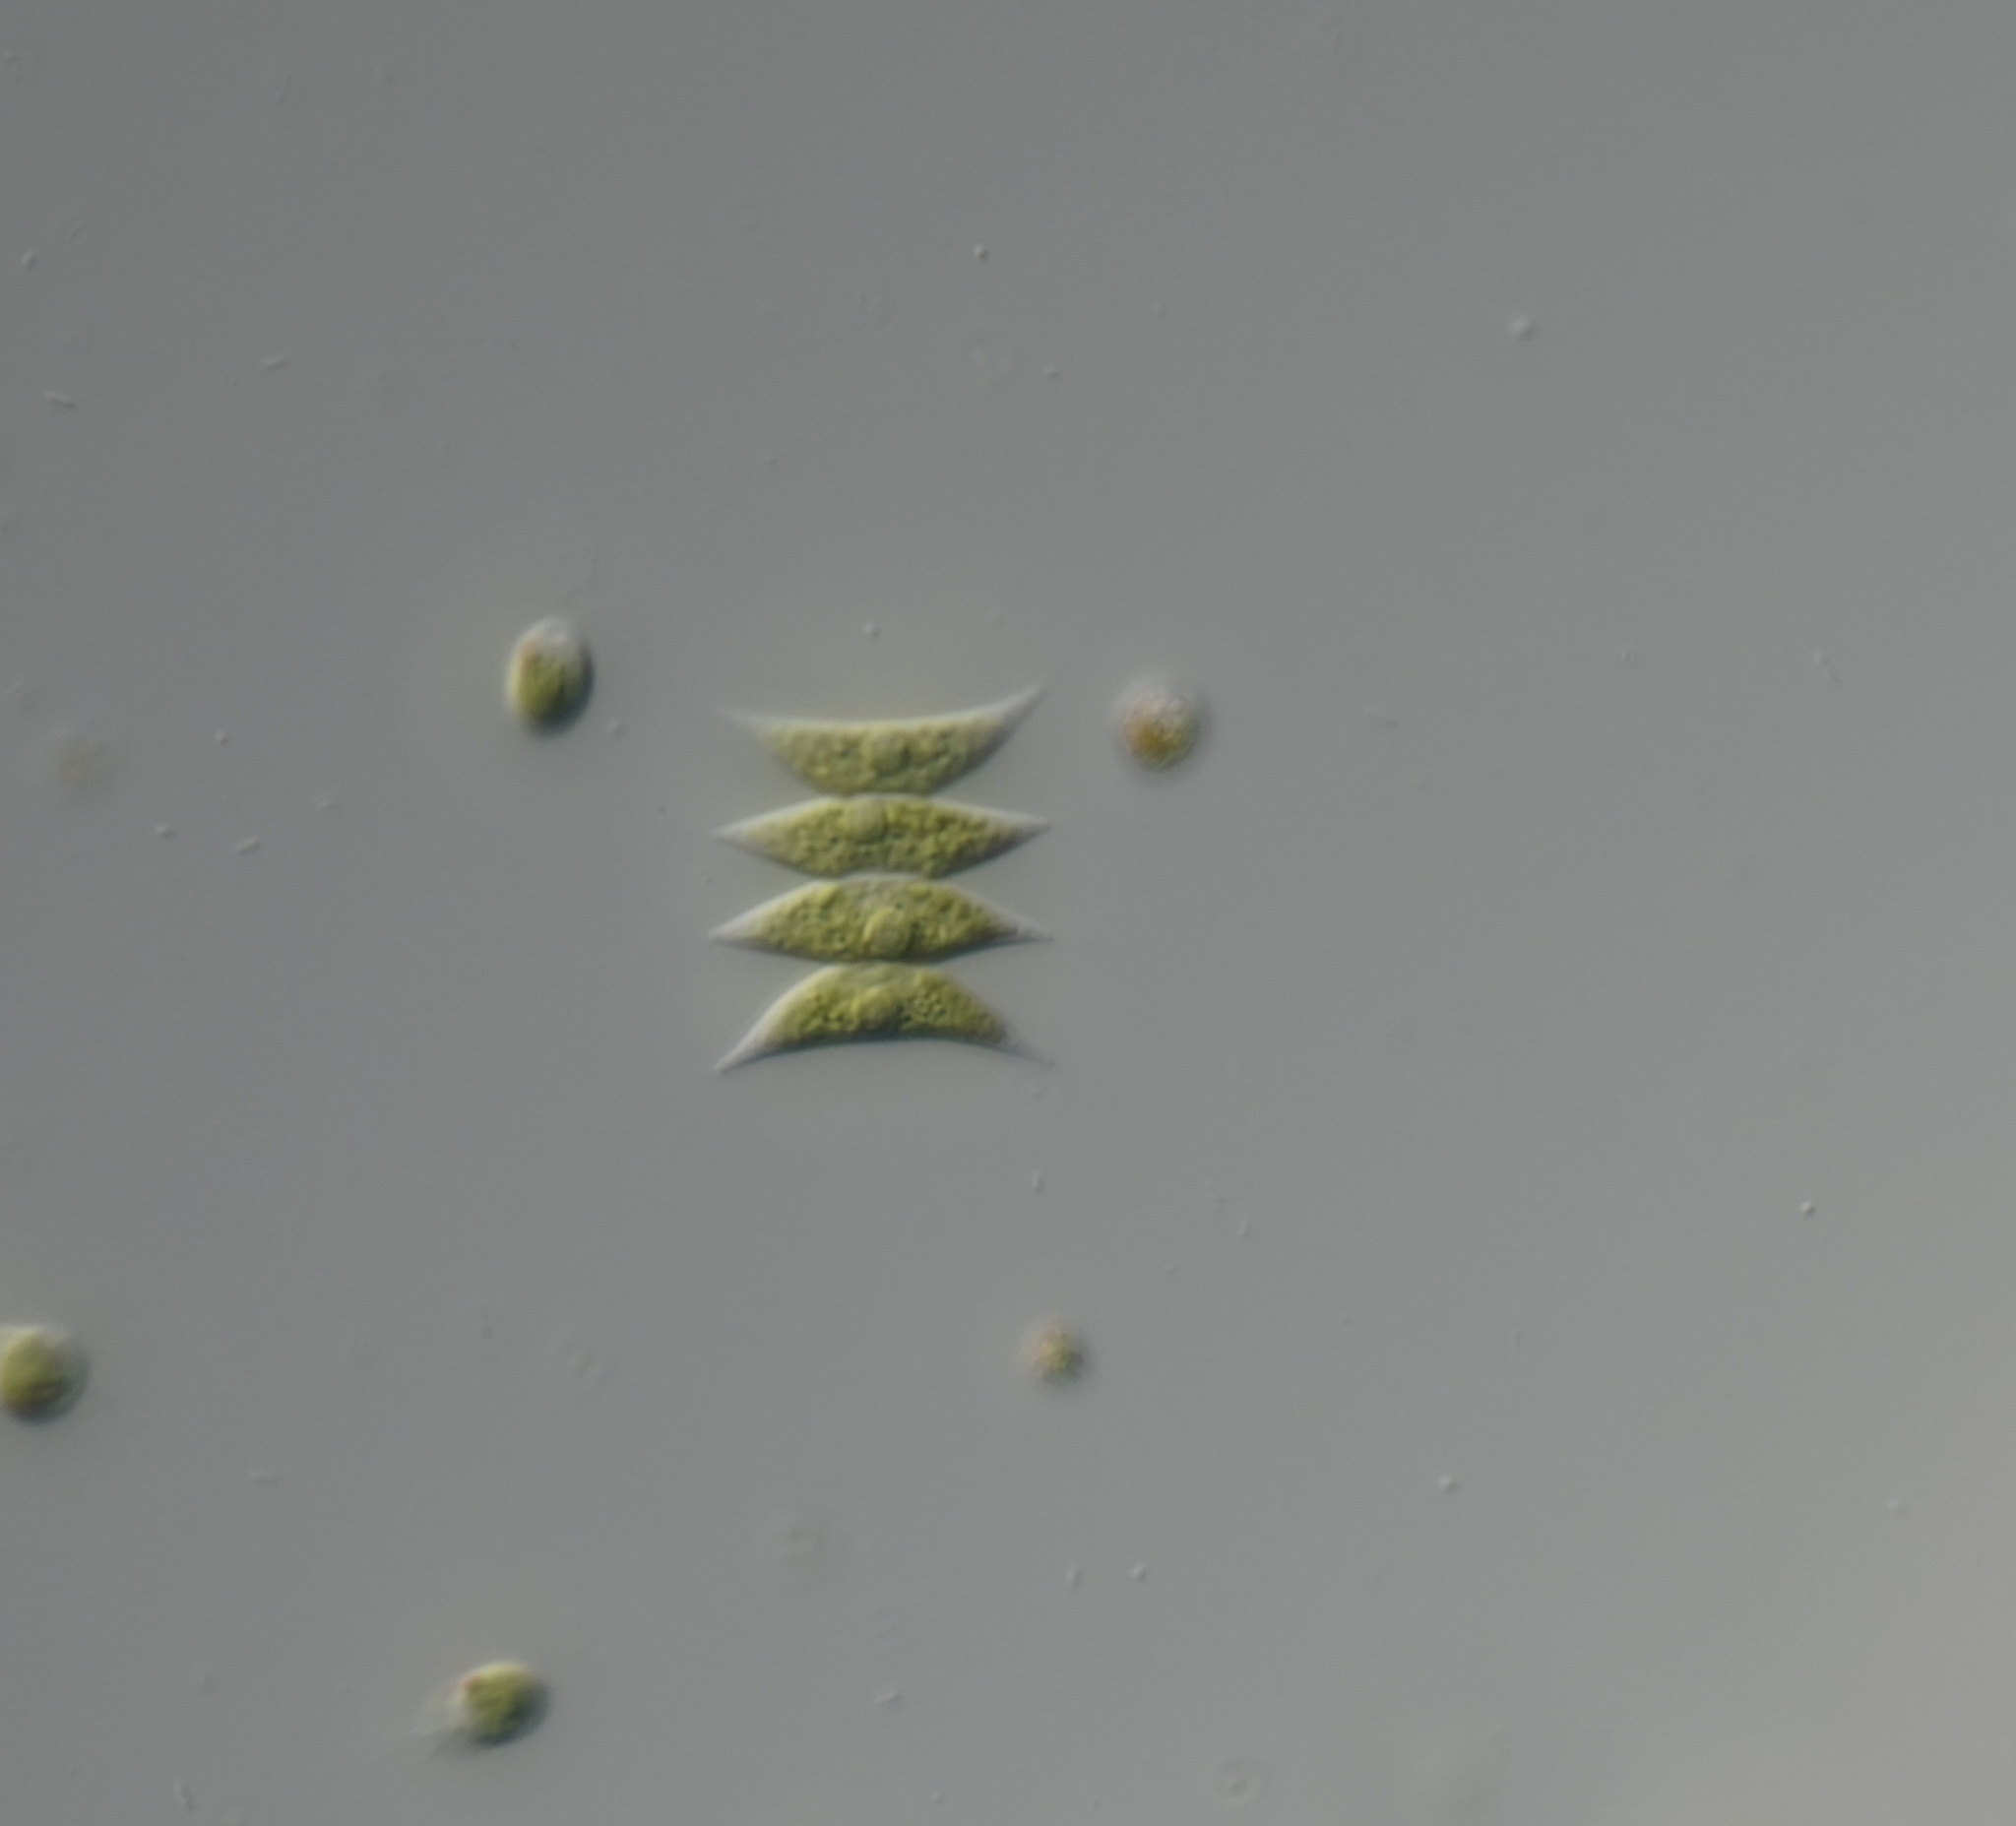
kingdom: Plantae
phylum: Chlorophyta
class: Chlorophyceae
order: Sphaeropleales
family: Scenedesmaceae
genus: Tetradesmus
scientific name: Tetradesmus dimorphus
